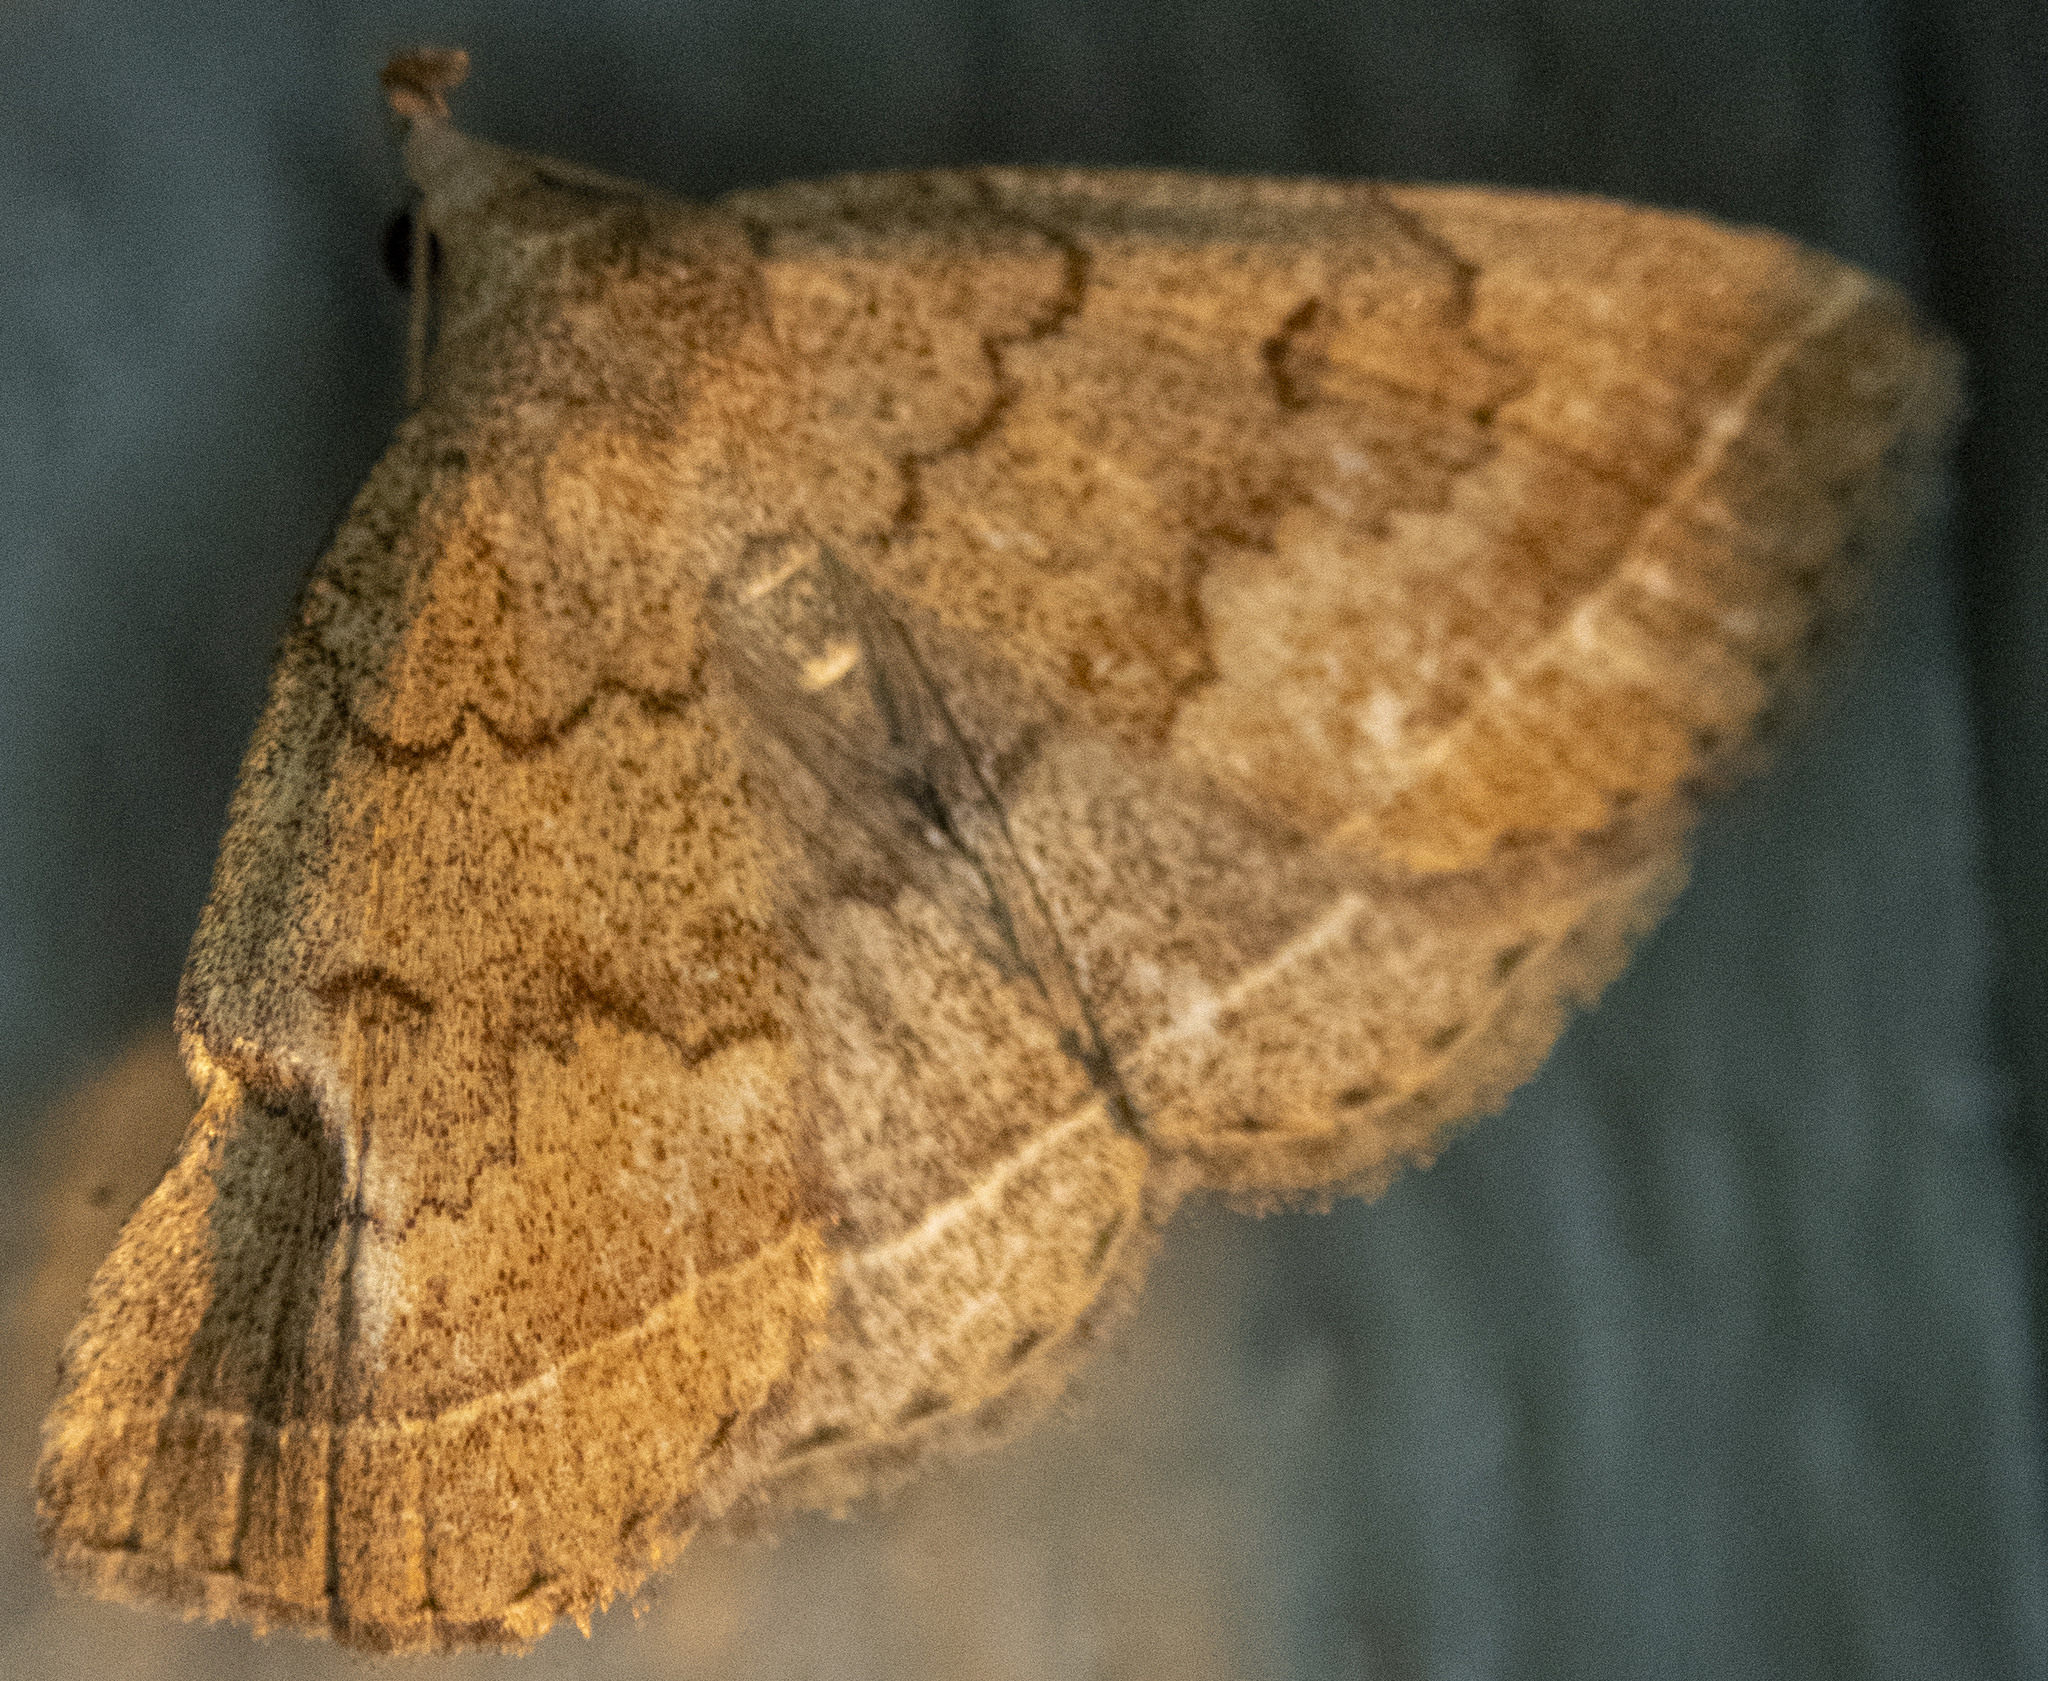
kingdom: Animalia
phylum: Arthropoda
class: Insecta
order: Lepidoptera
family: Erebidae
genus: Zanclognatha
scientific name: Zanclognatha jacchusalis
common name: Yellowish zanclognatha
